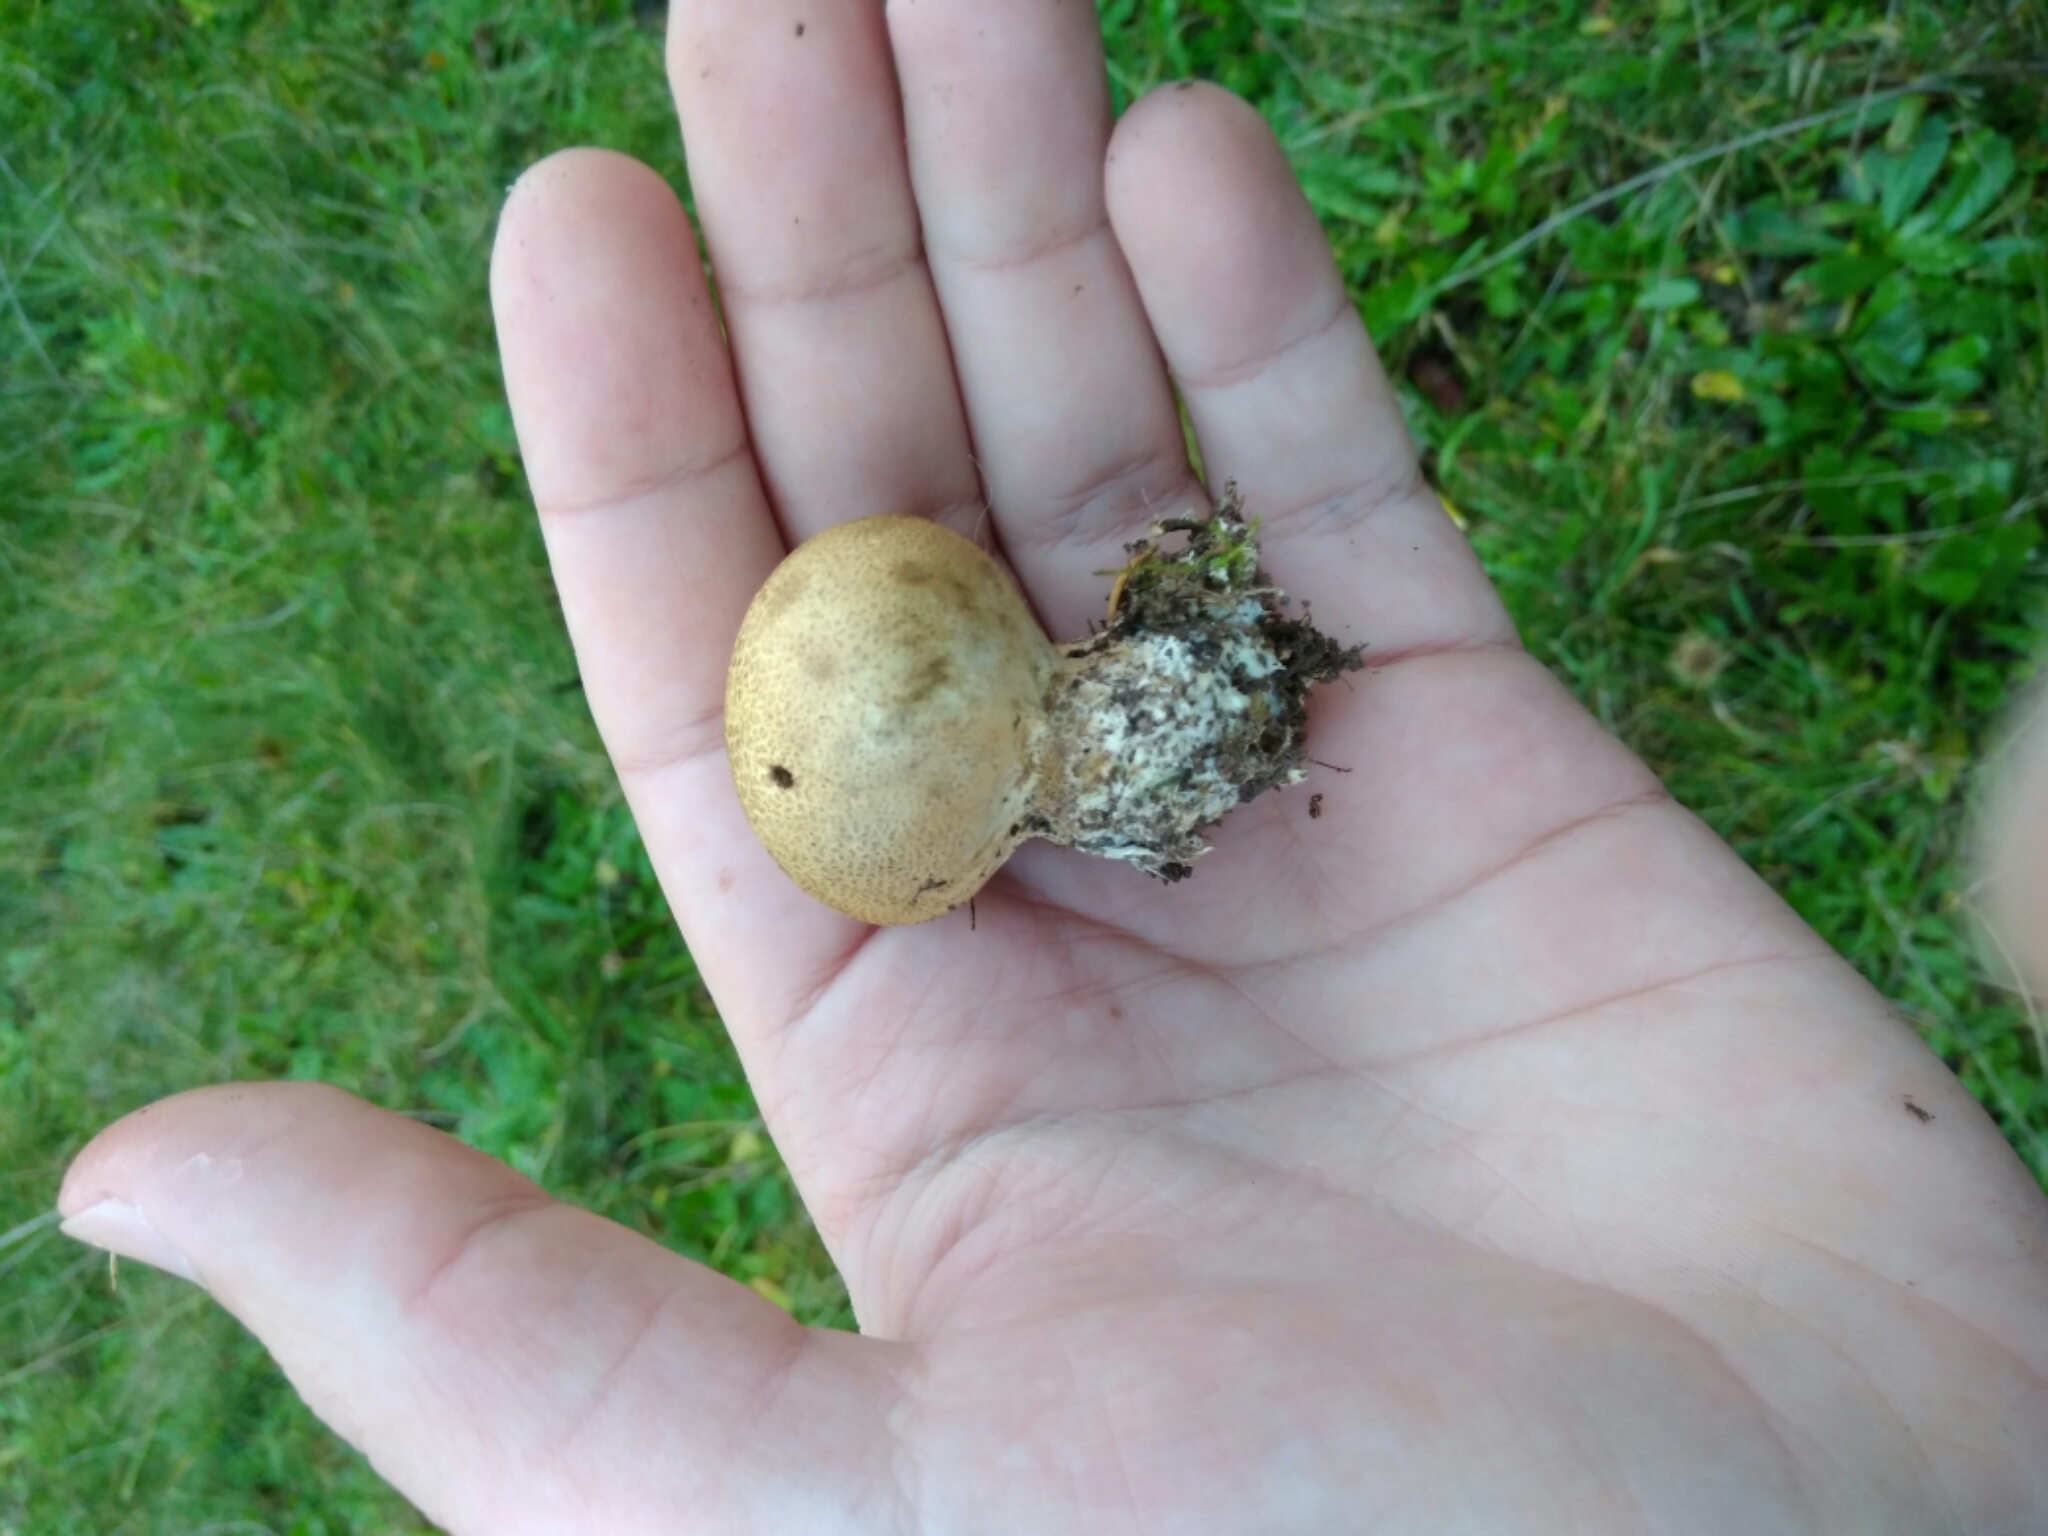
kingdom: Fungi
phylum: Basidiomycota
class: Agaricomycetes
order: Boletales
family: Sclerodermataceae
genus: Scleroderma
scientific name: Scleroderma citrinum
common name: Common earthball
